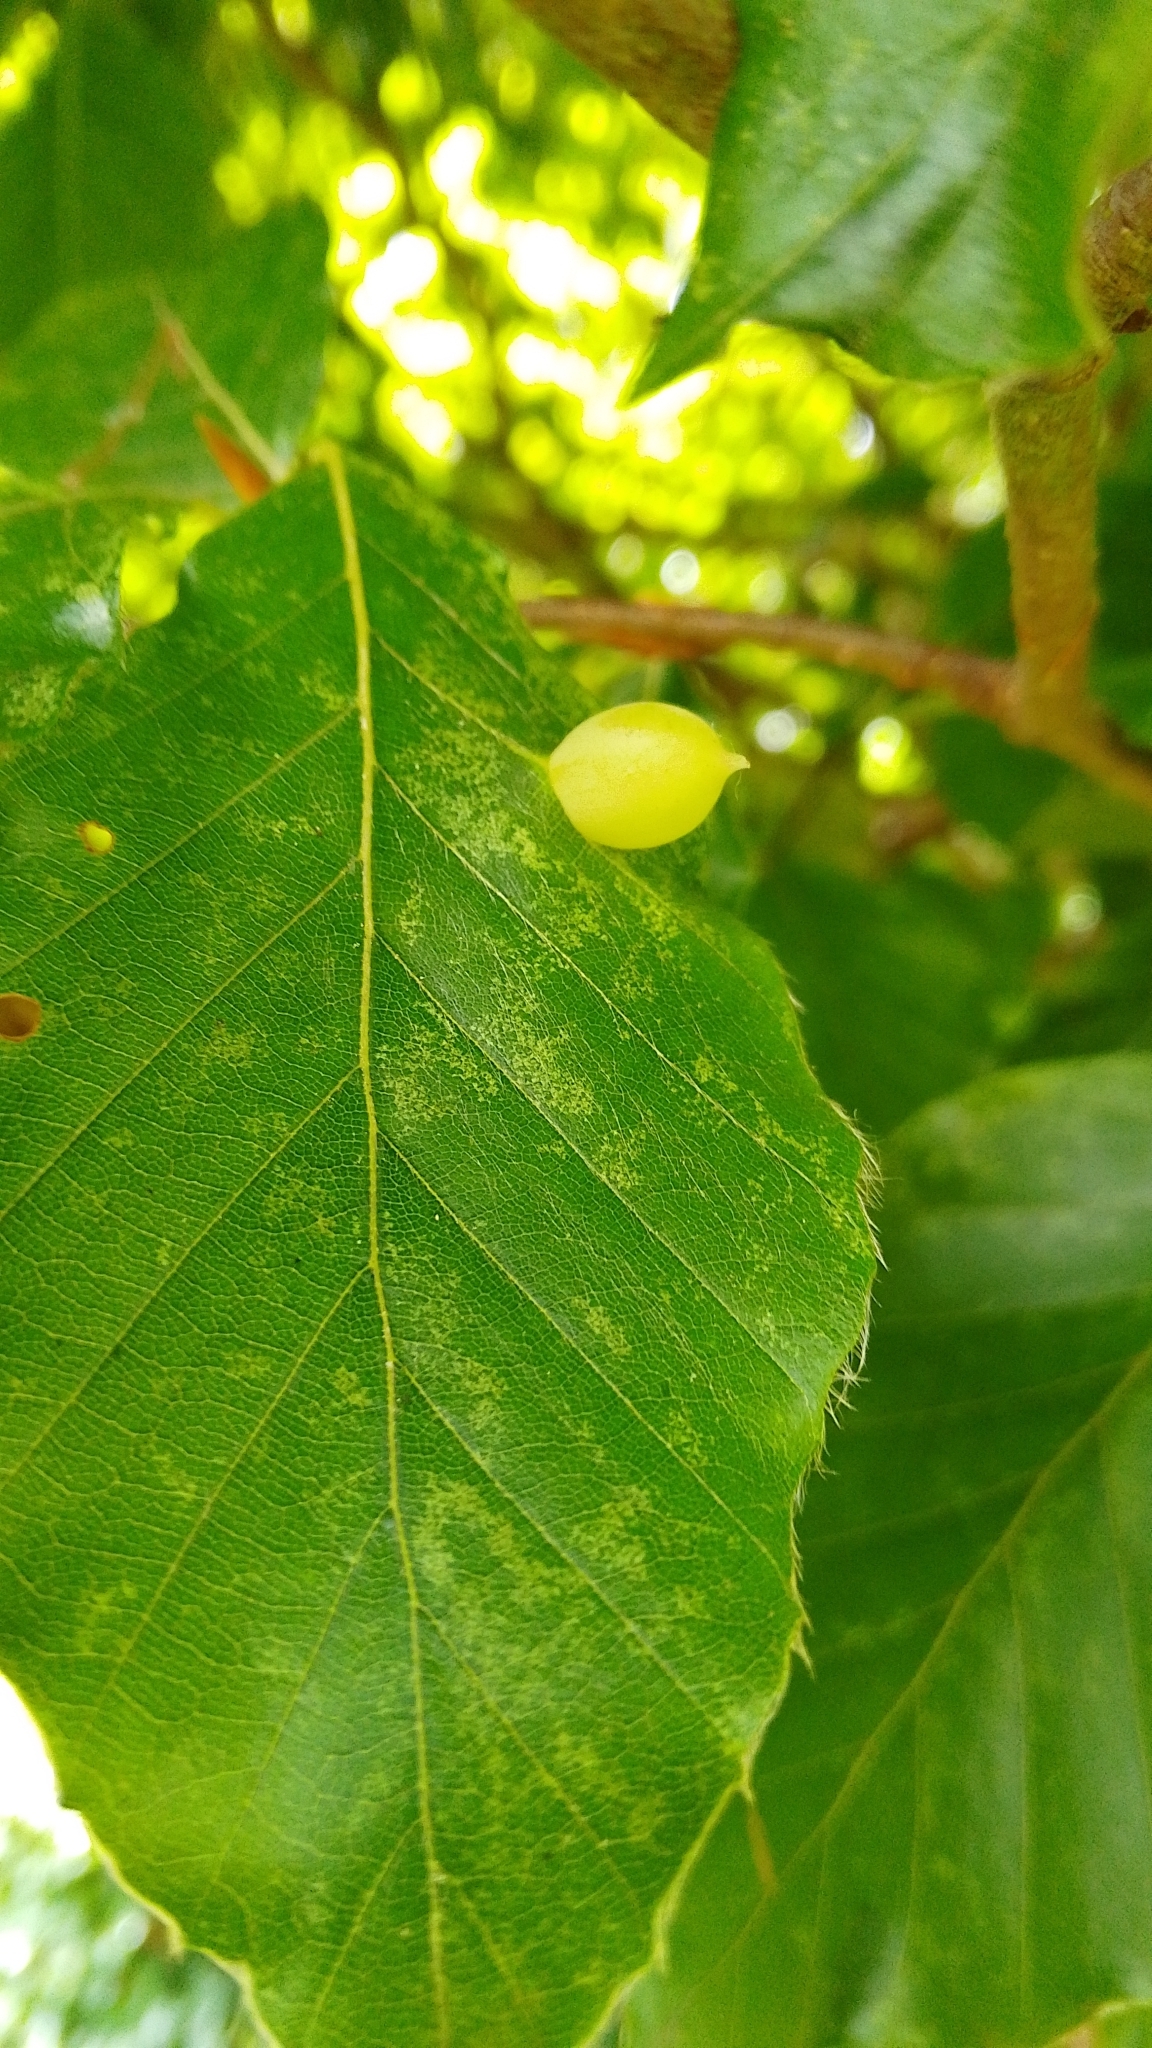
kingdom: Animalia
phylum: Arthropoda
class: Insecta
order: Diptera
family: Cecidomyiidae
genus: Mikiola
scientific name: Mikiola fagi
